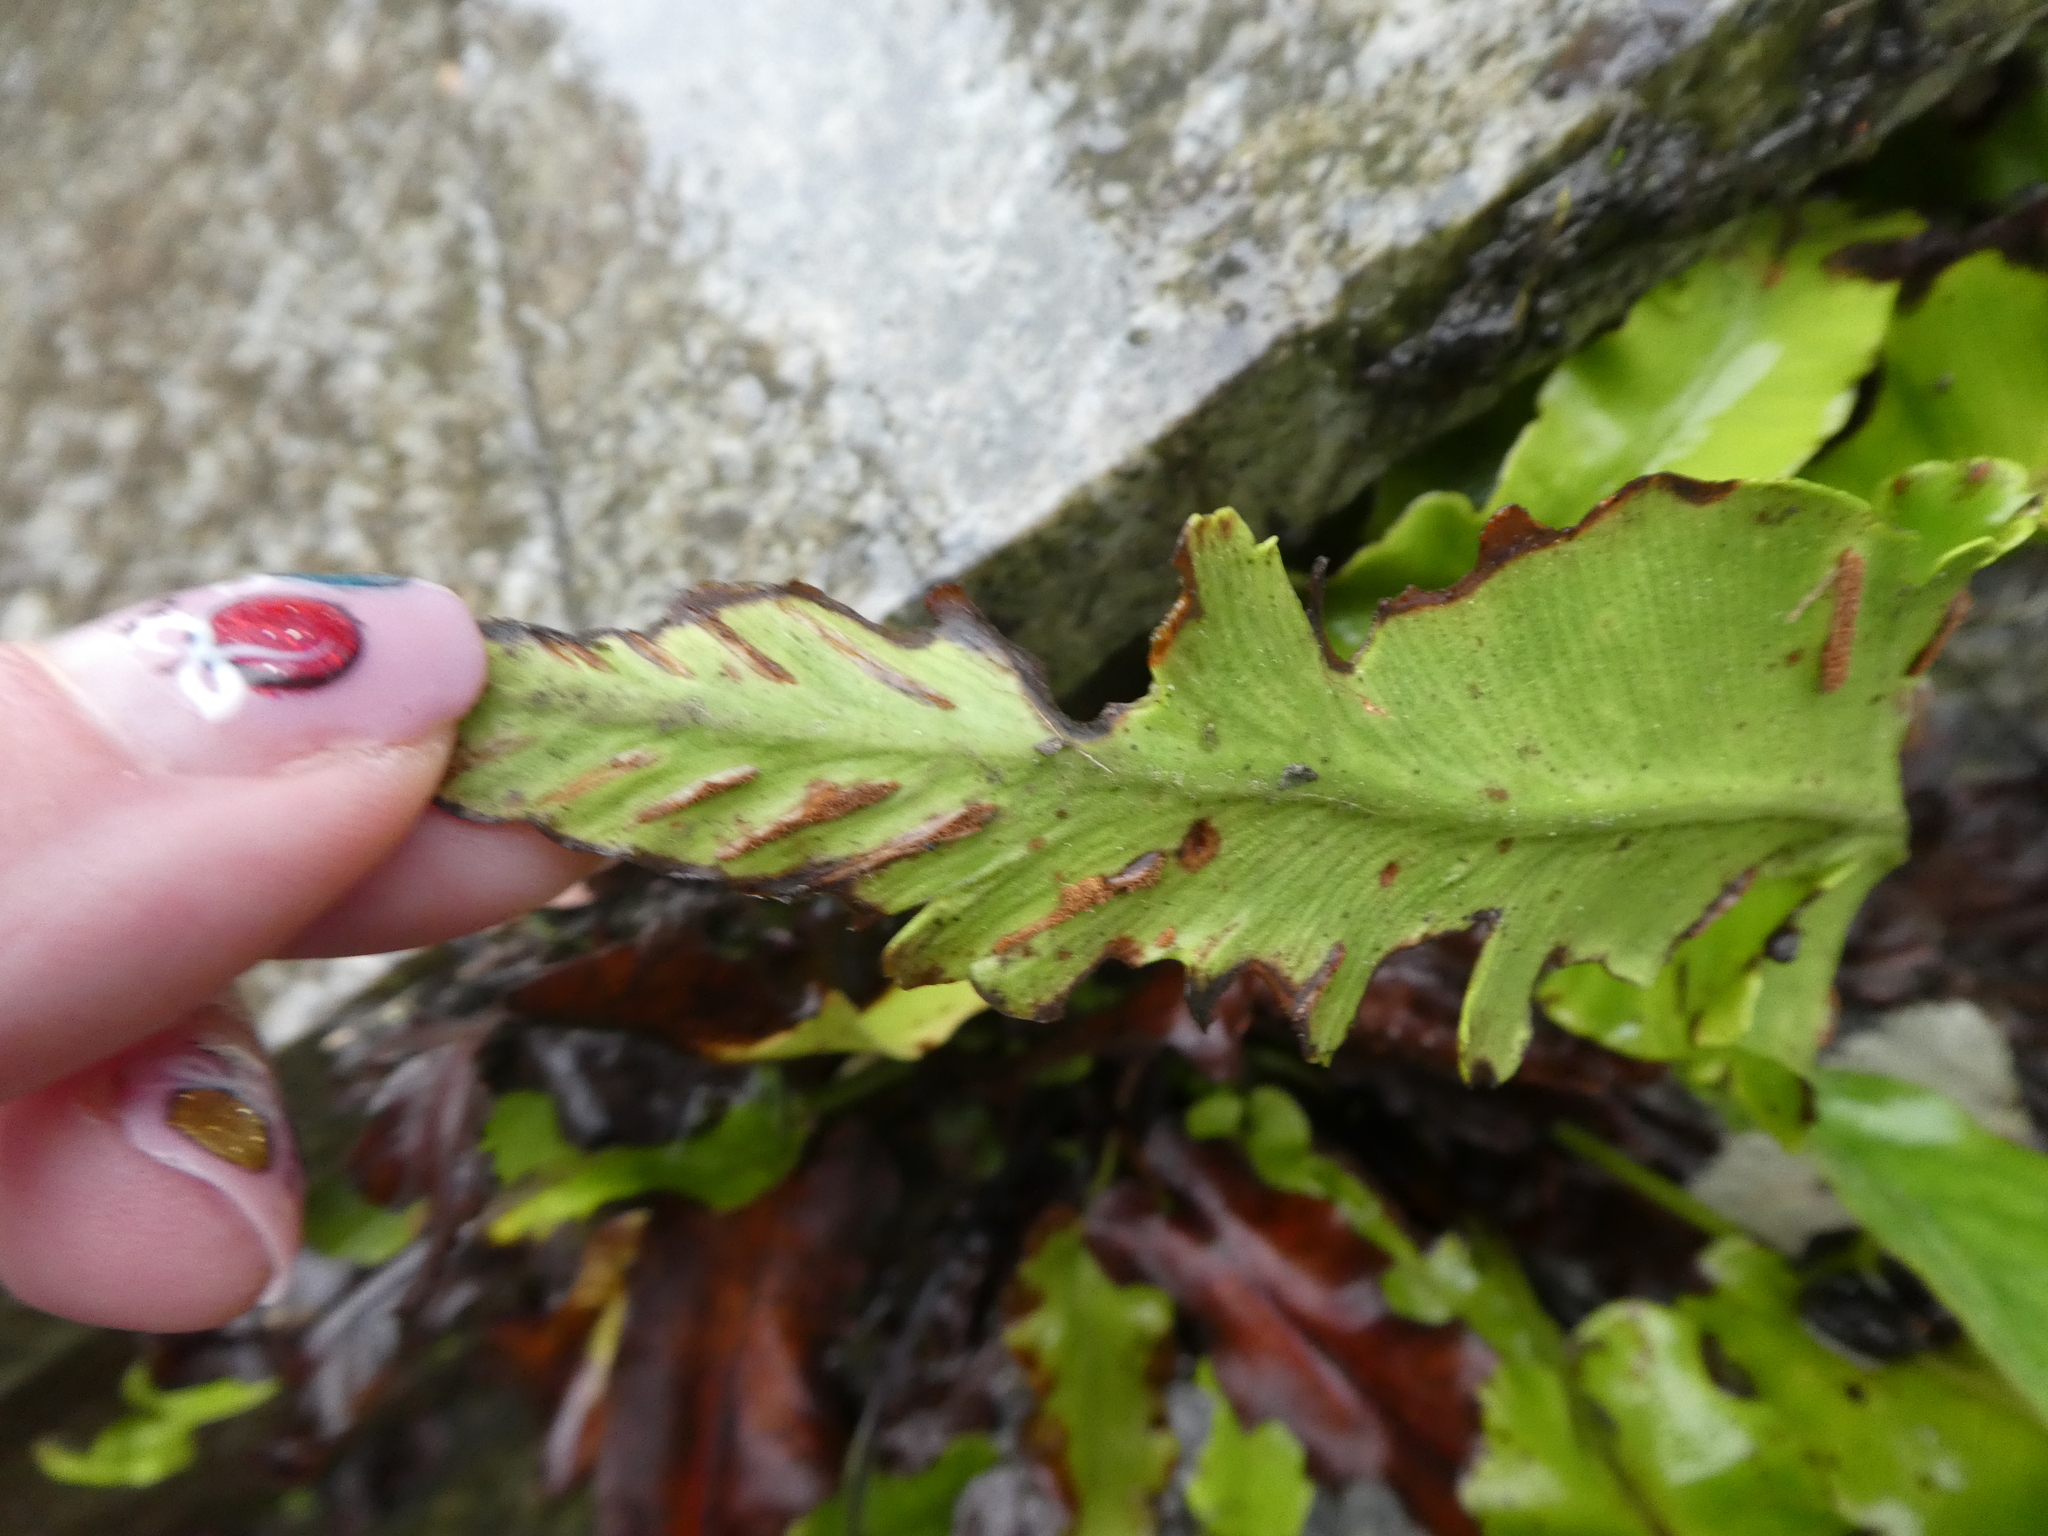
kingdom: Plantae
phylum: Tracheophyta
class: Polypodiopsida
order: Polypodiales
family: Aspleniaceae
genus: Asplenium
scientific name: Asplenium scolopendrium
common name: Hart's-tongue fern
